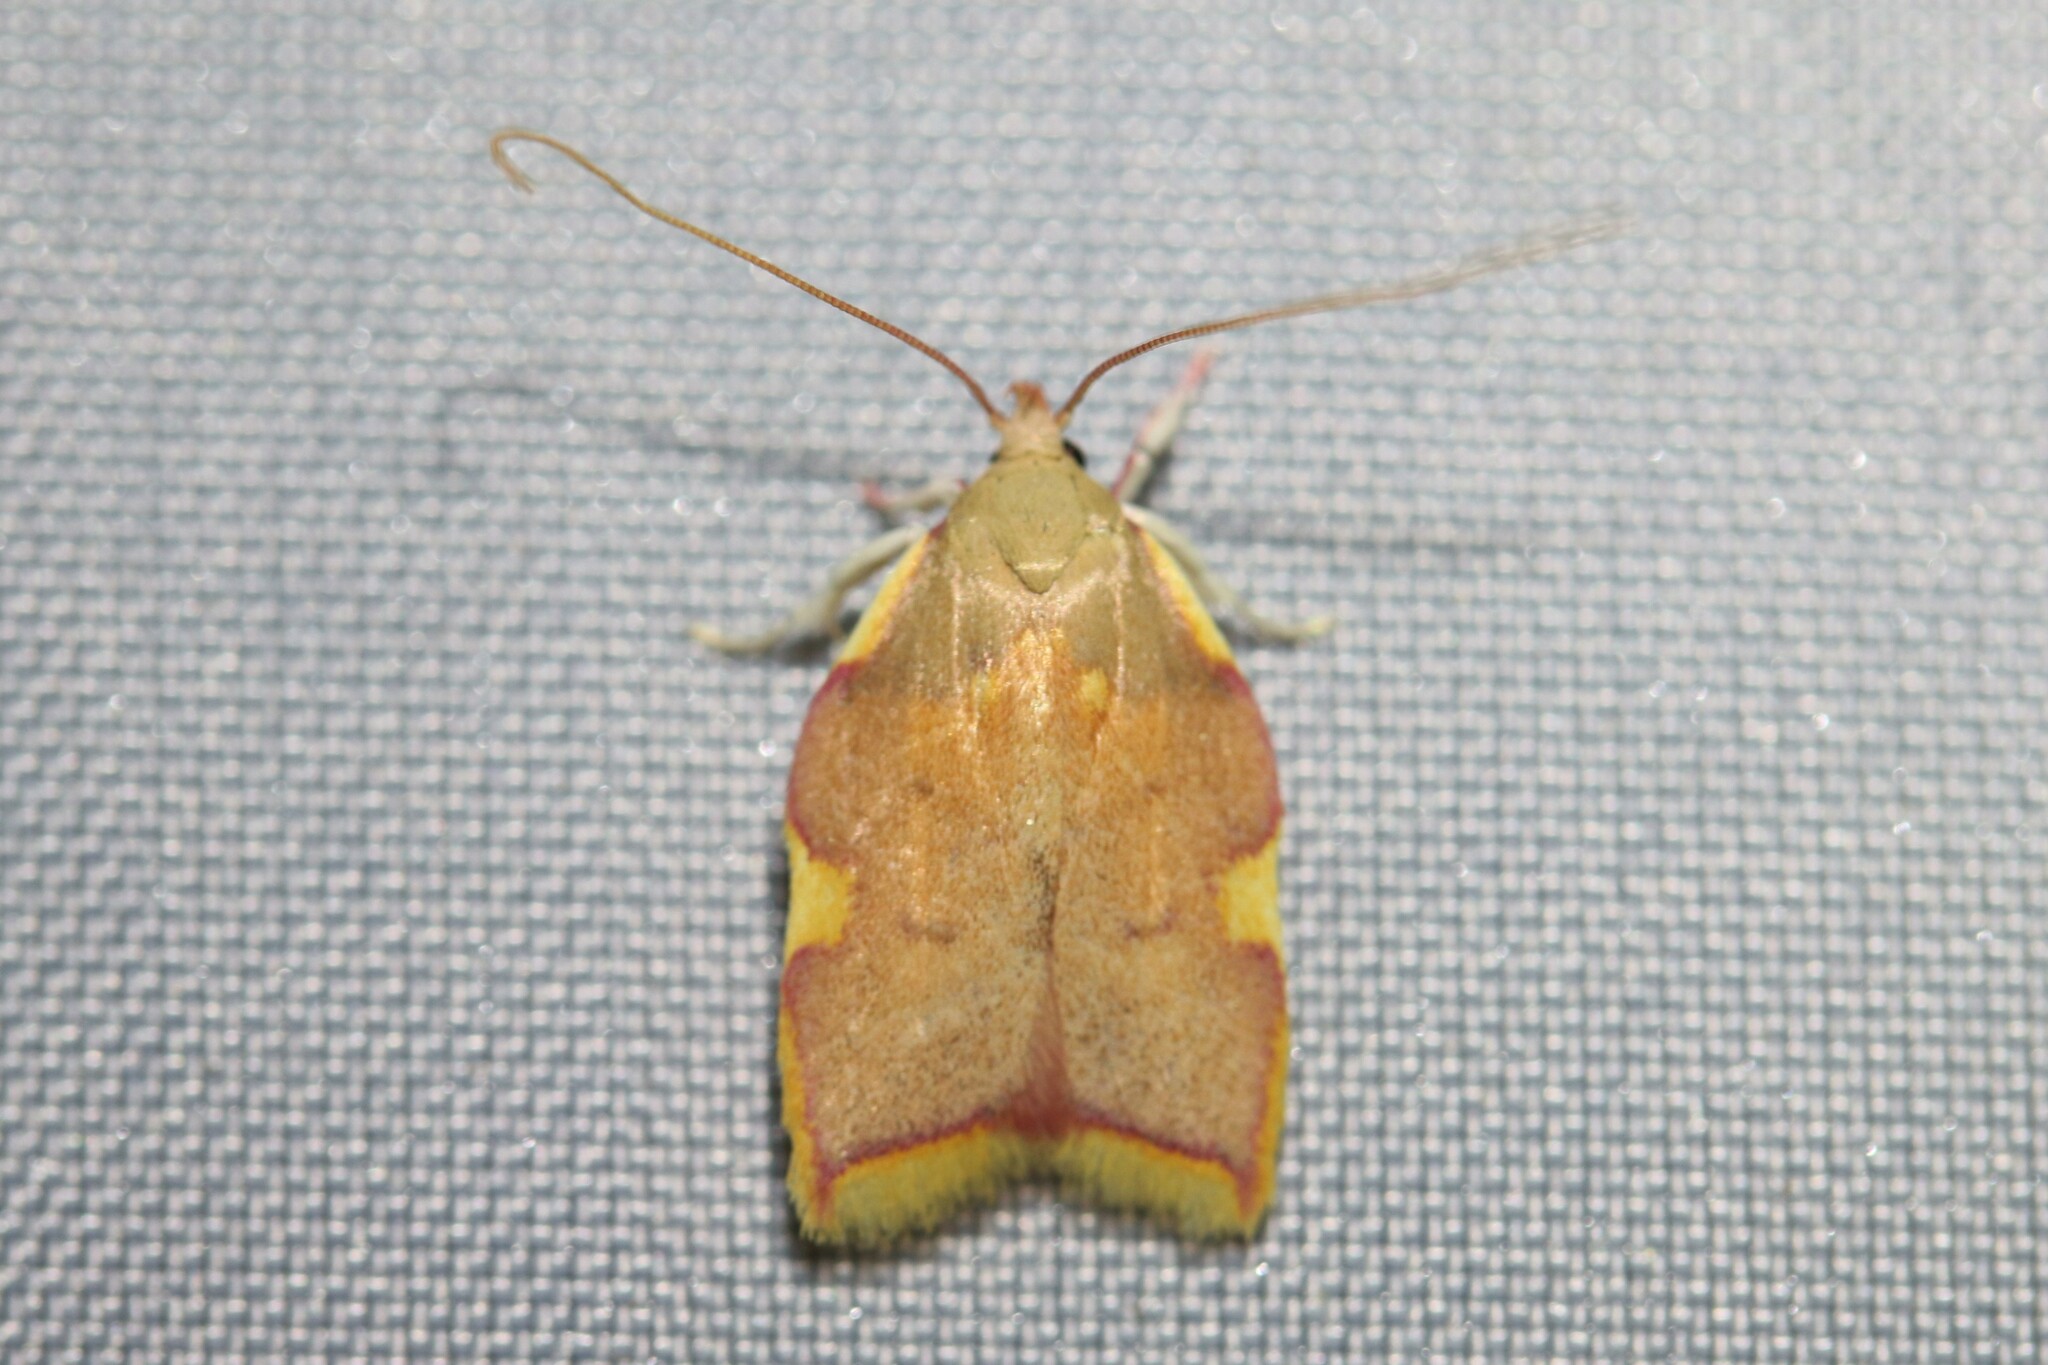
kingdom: Animalia
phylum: Arthropoda
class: Insecta
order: Lepidoptera
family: Peleopodidae
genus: Carcina
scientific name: Carcina quercana
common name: Moth
